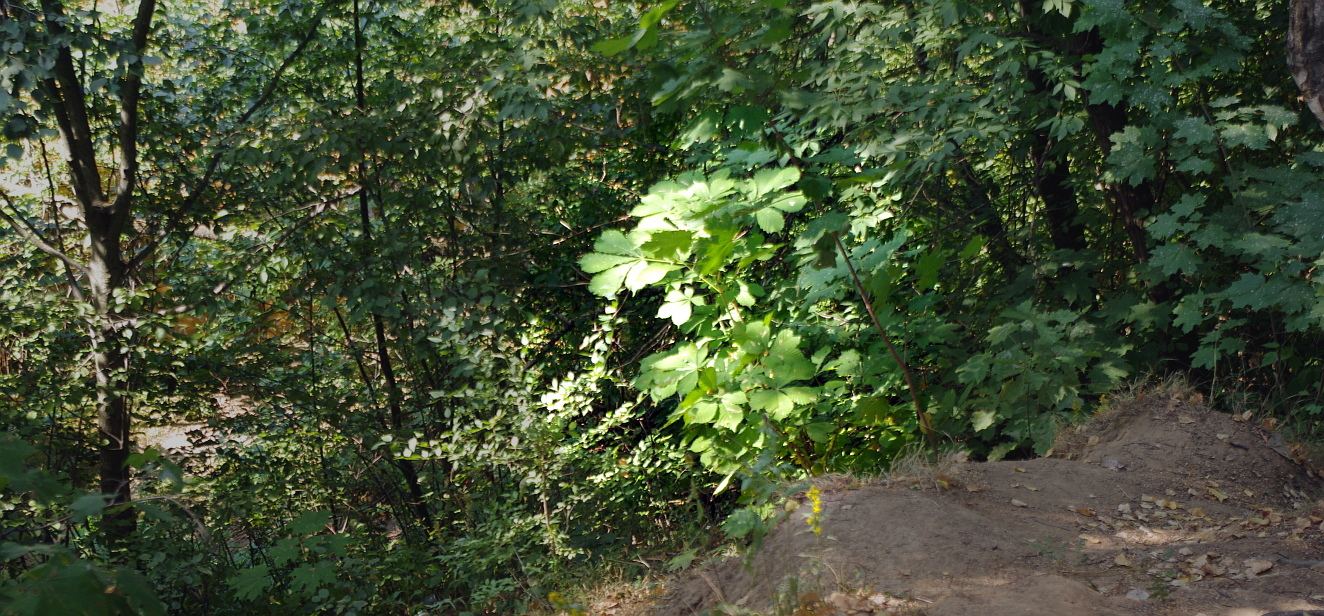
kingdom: Plantae
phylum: Tracheophyta
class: Magnoliopsida
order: Sapindales
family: Sapindaceae
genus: Aesculus
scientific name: Aesculus hippocastanum
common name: Horse-chestnut
